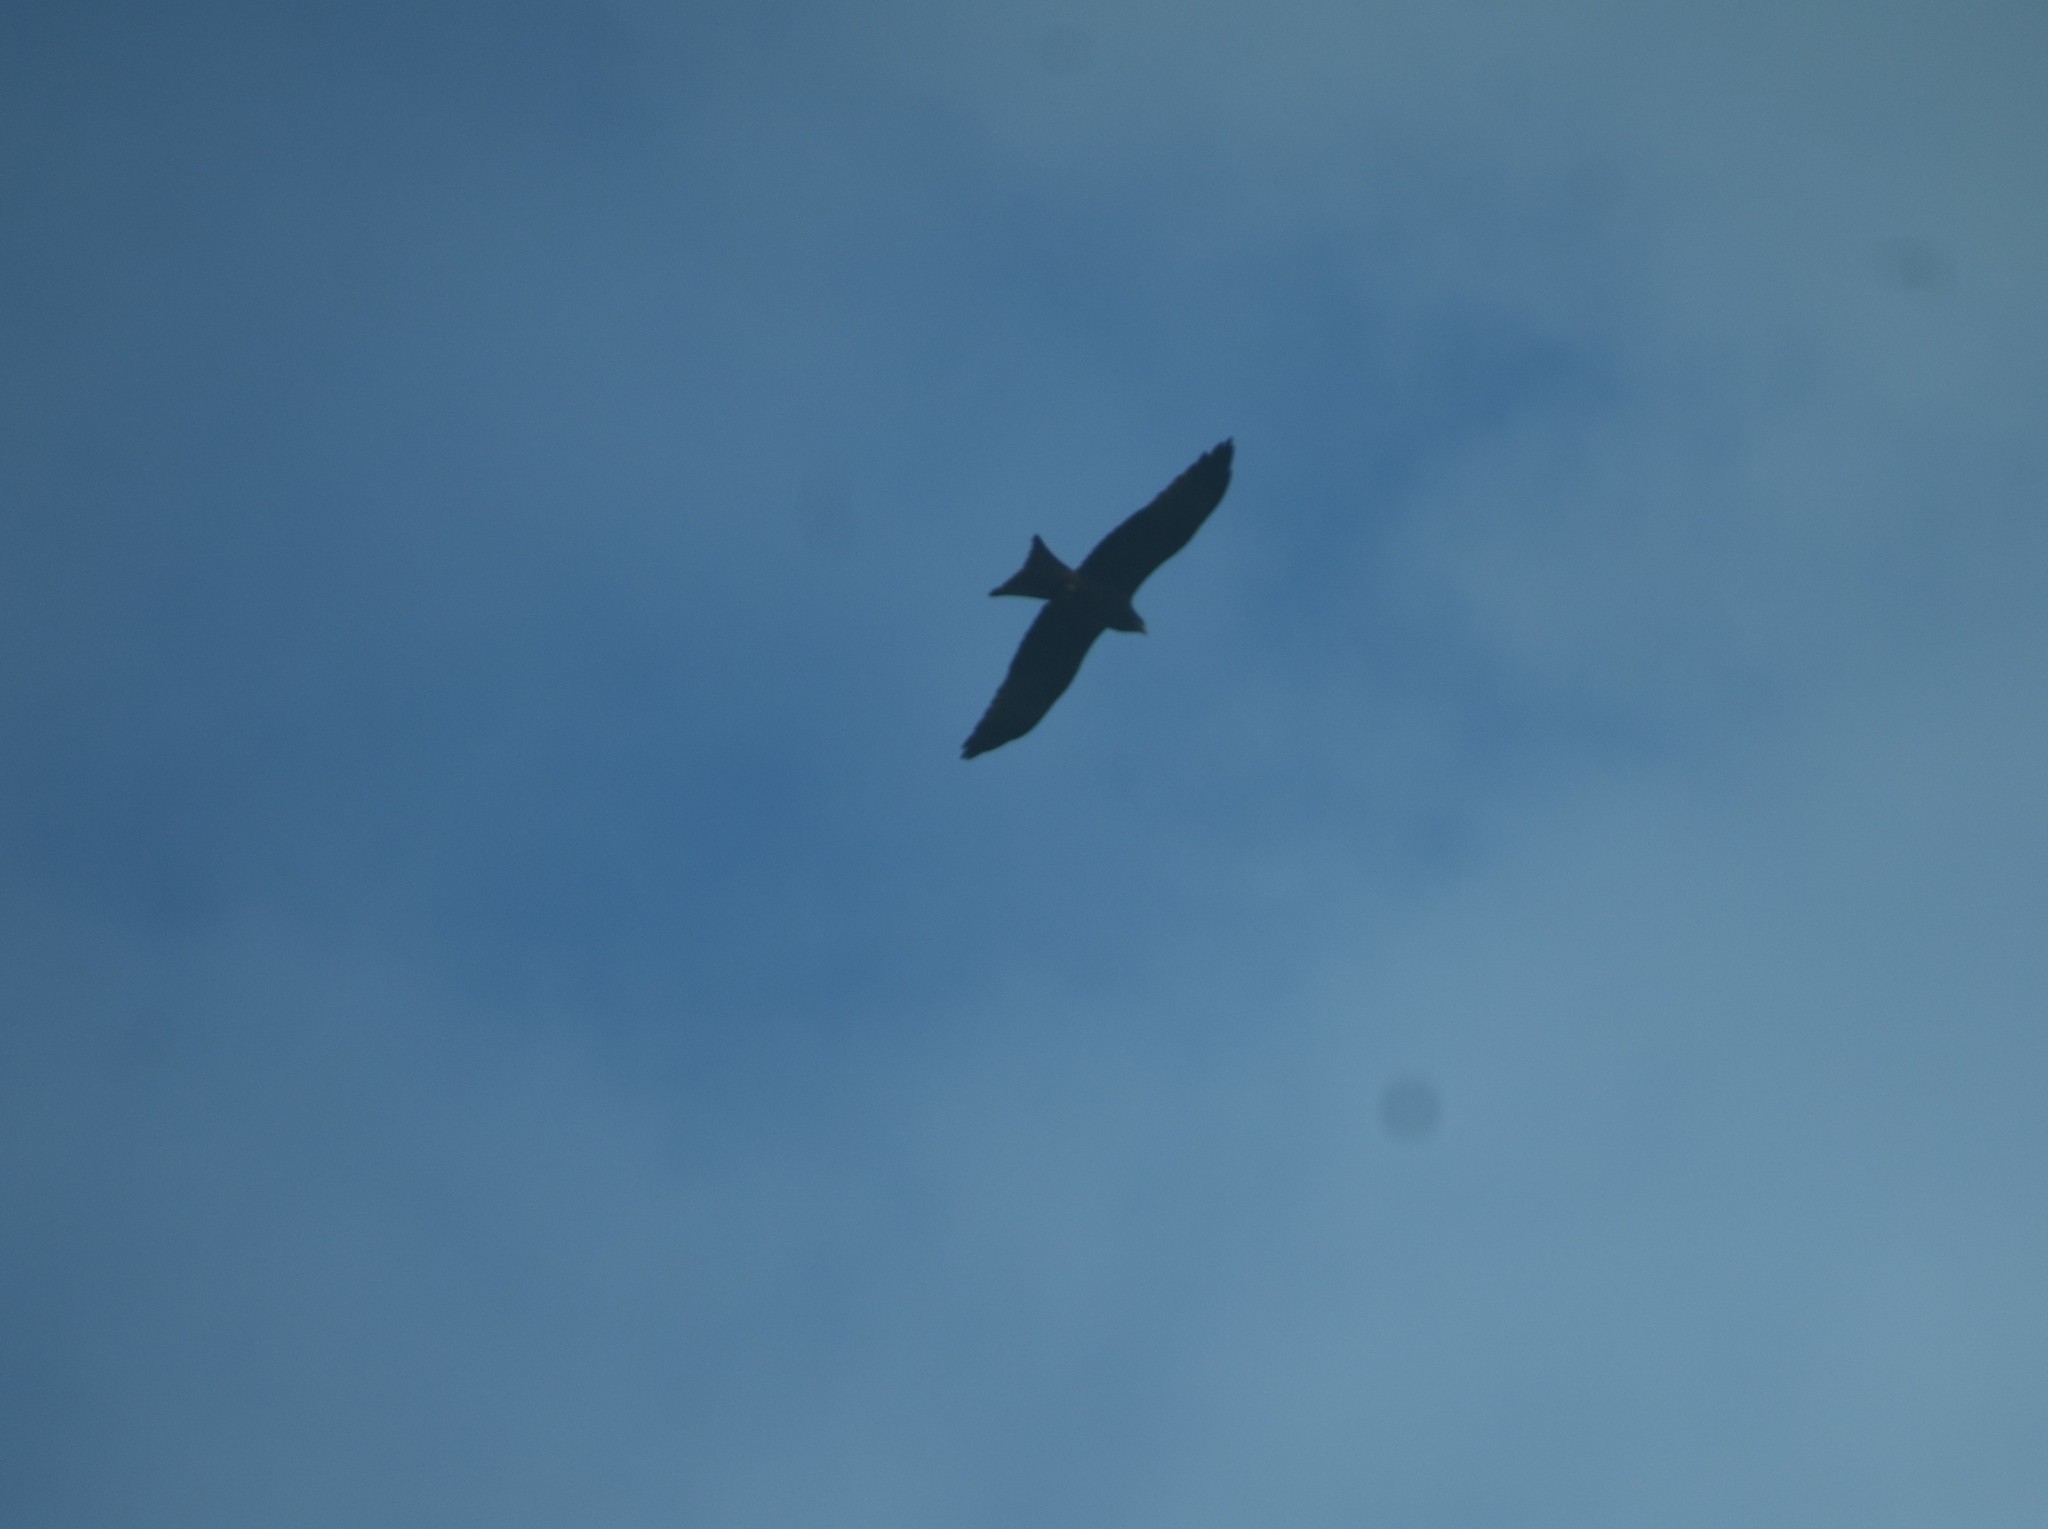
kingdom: Animalia
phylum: Chordata
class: Aves
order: Accipitriformes
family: Accipitridae
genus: Milvus
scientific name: Milvus migrans
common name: Black kite
